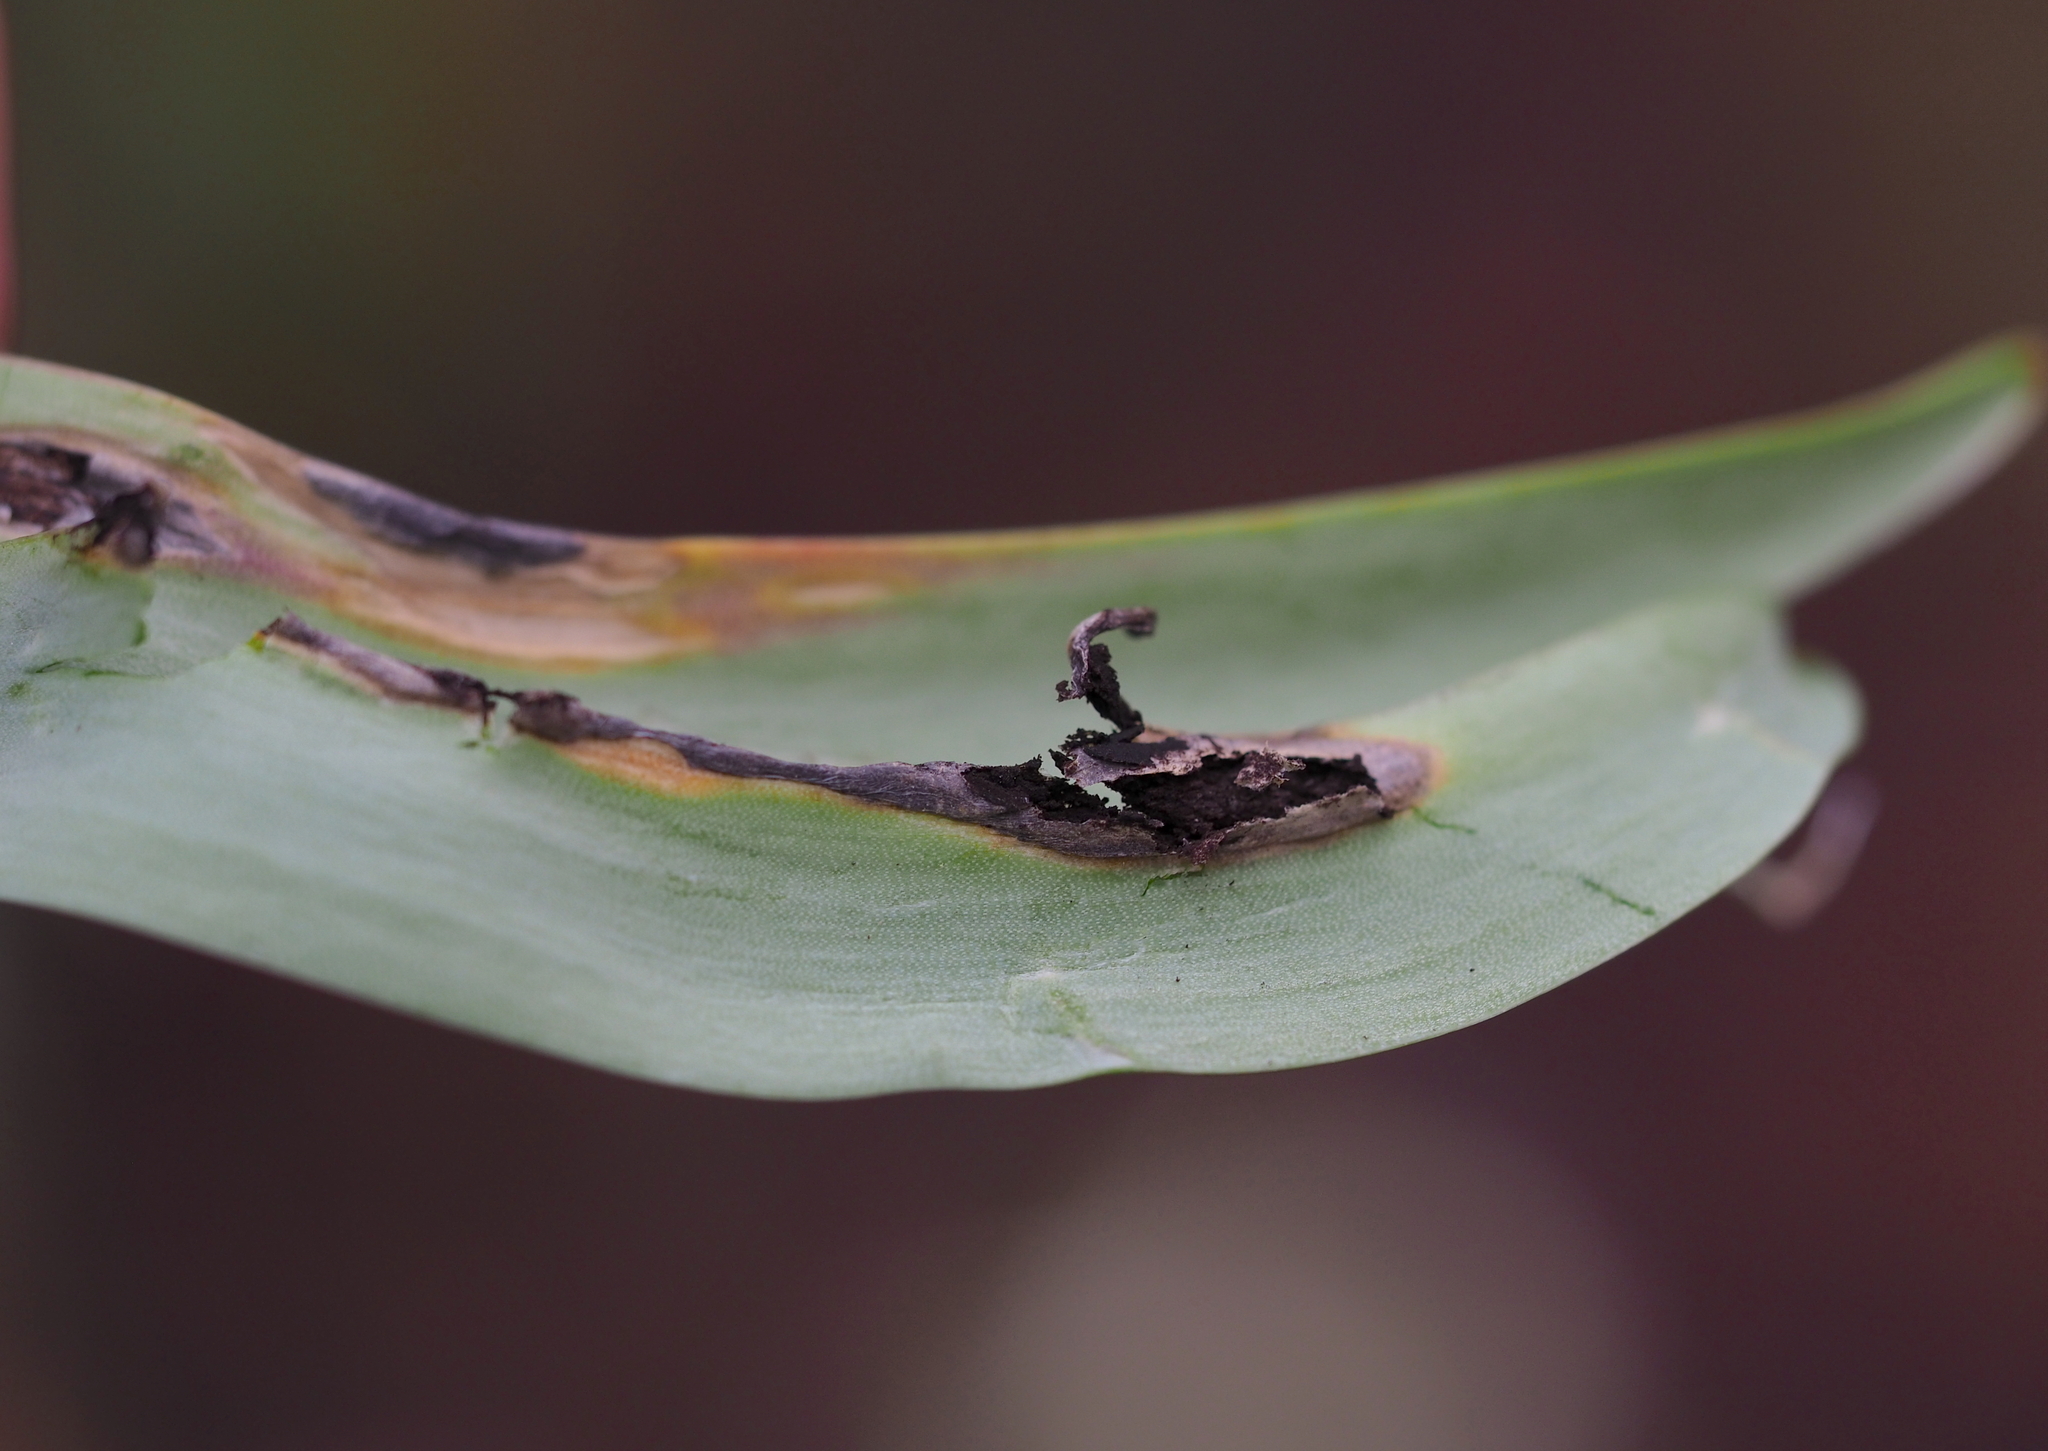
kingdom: Fungi
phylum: Basidiomycota
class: Ustilaginomycetes
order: Urocystidales
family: Urocystidaceae
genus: Vankya
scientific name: Vankya heufleri
